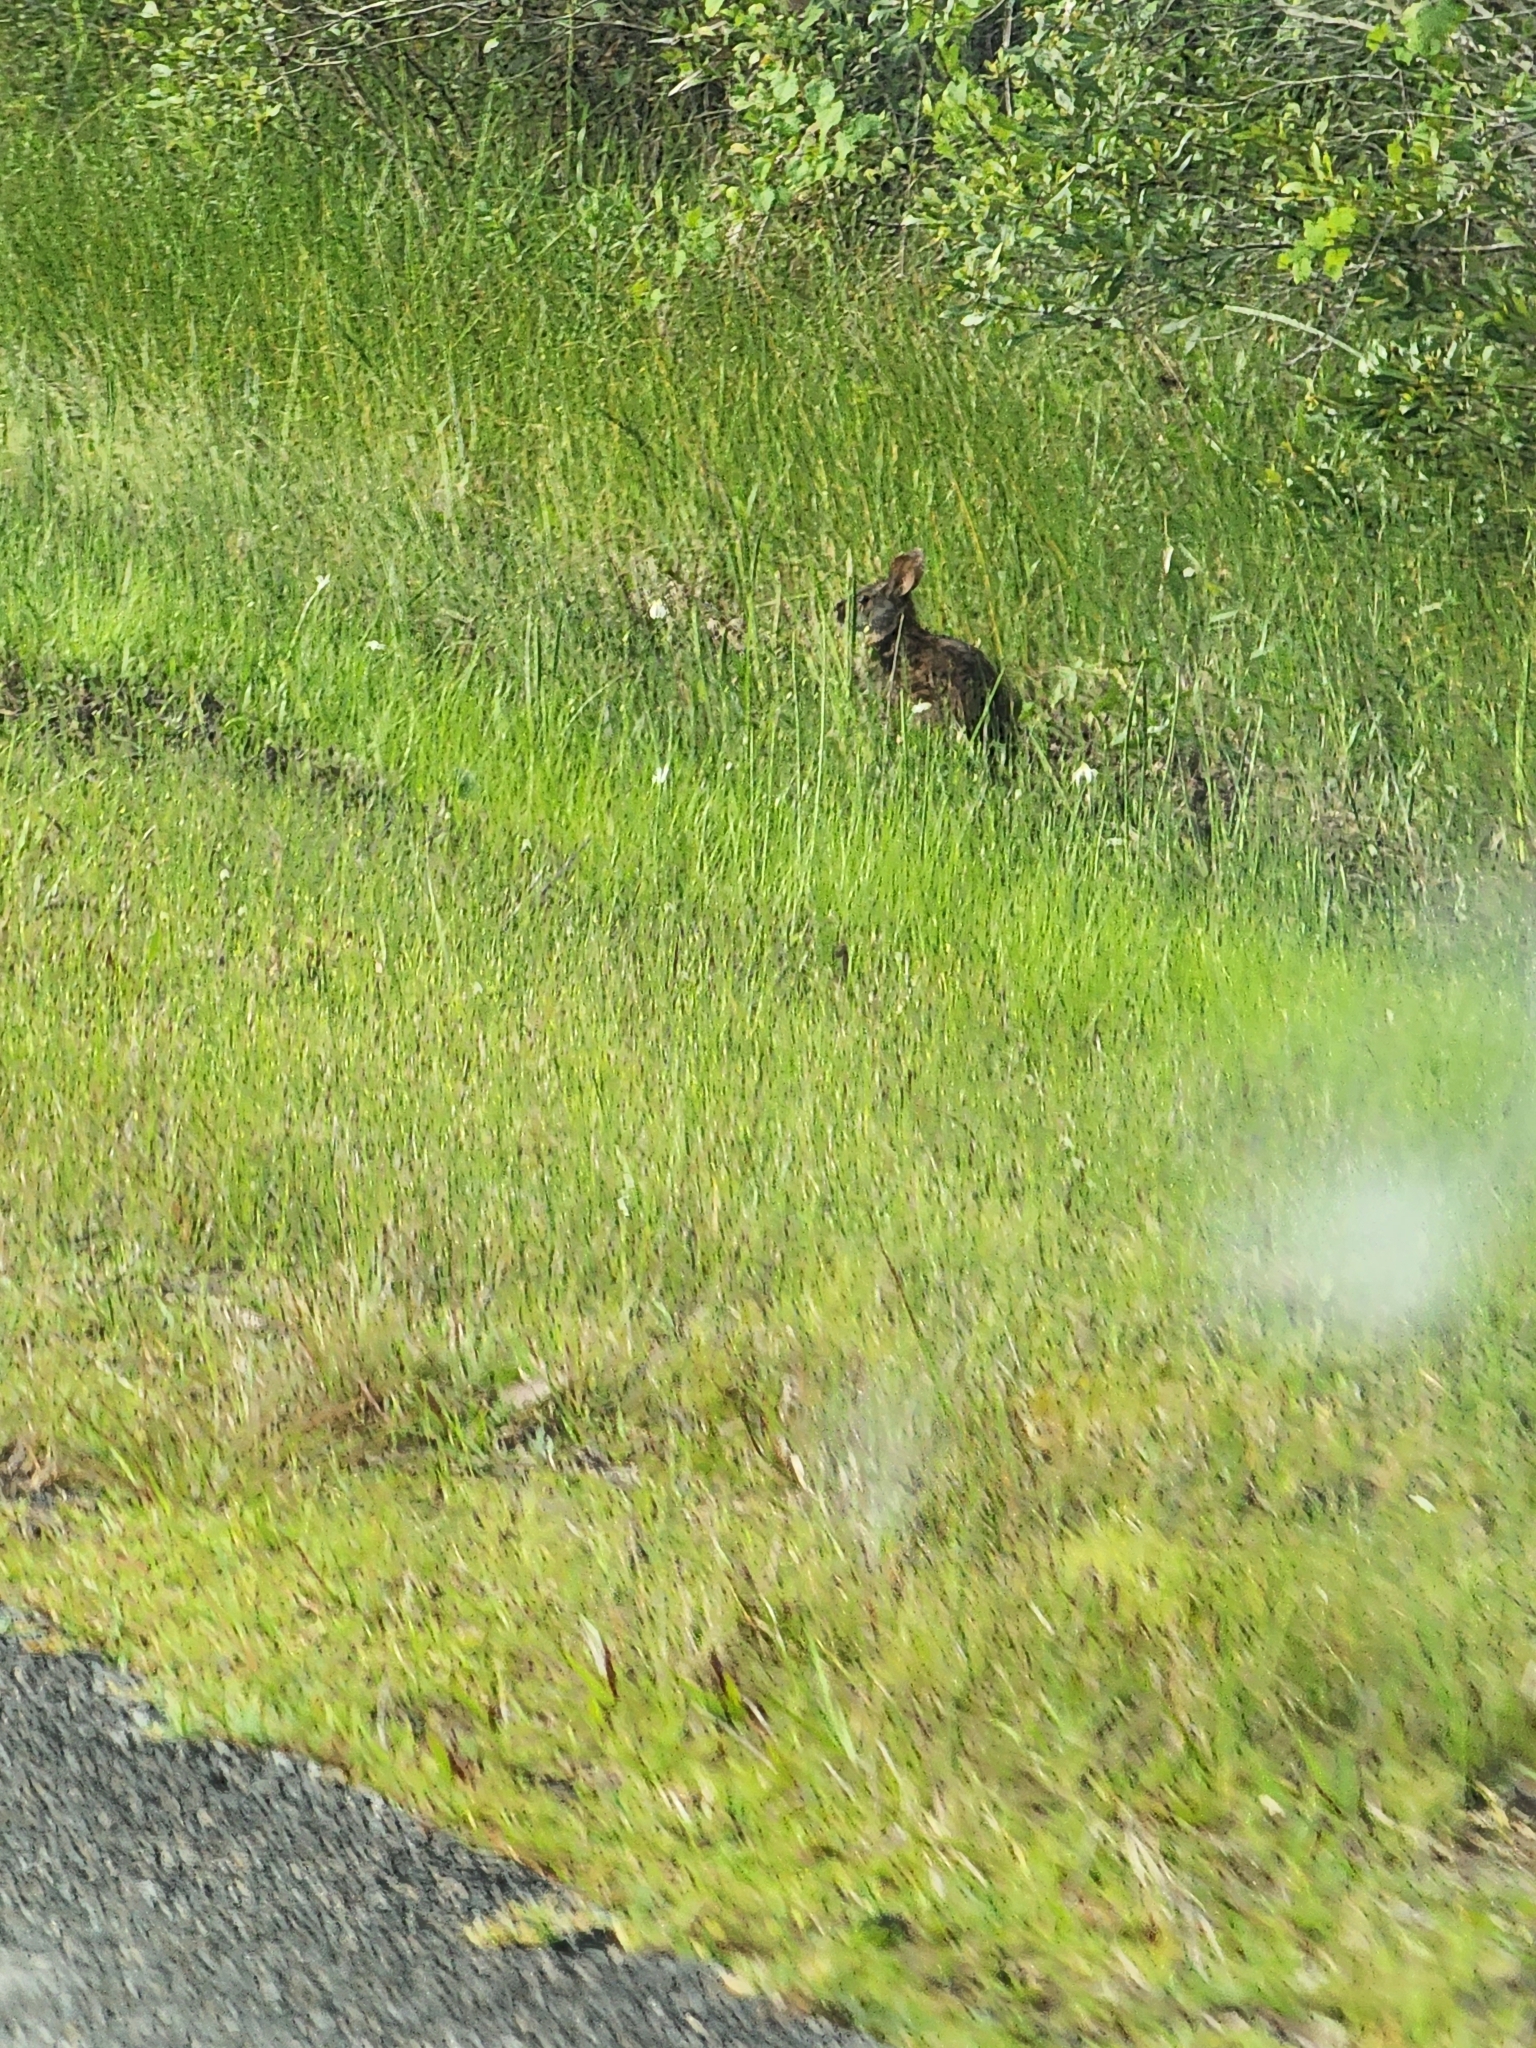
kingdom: Animalia
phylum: Chordata
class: Mammalia
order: Lagomorpha
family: Leporidae
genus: Sylvilagus
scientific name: Sylvilagus palustris
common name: Marsh rabbit
